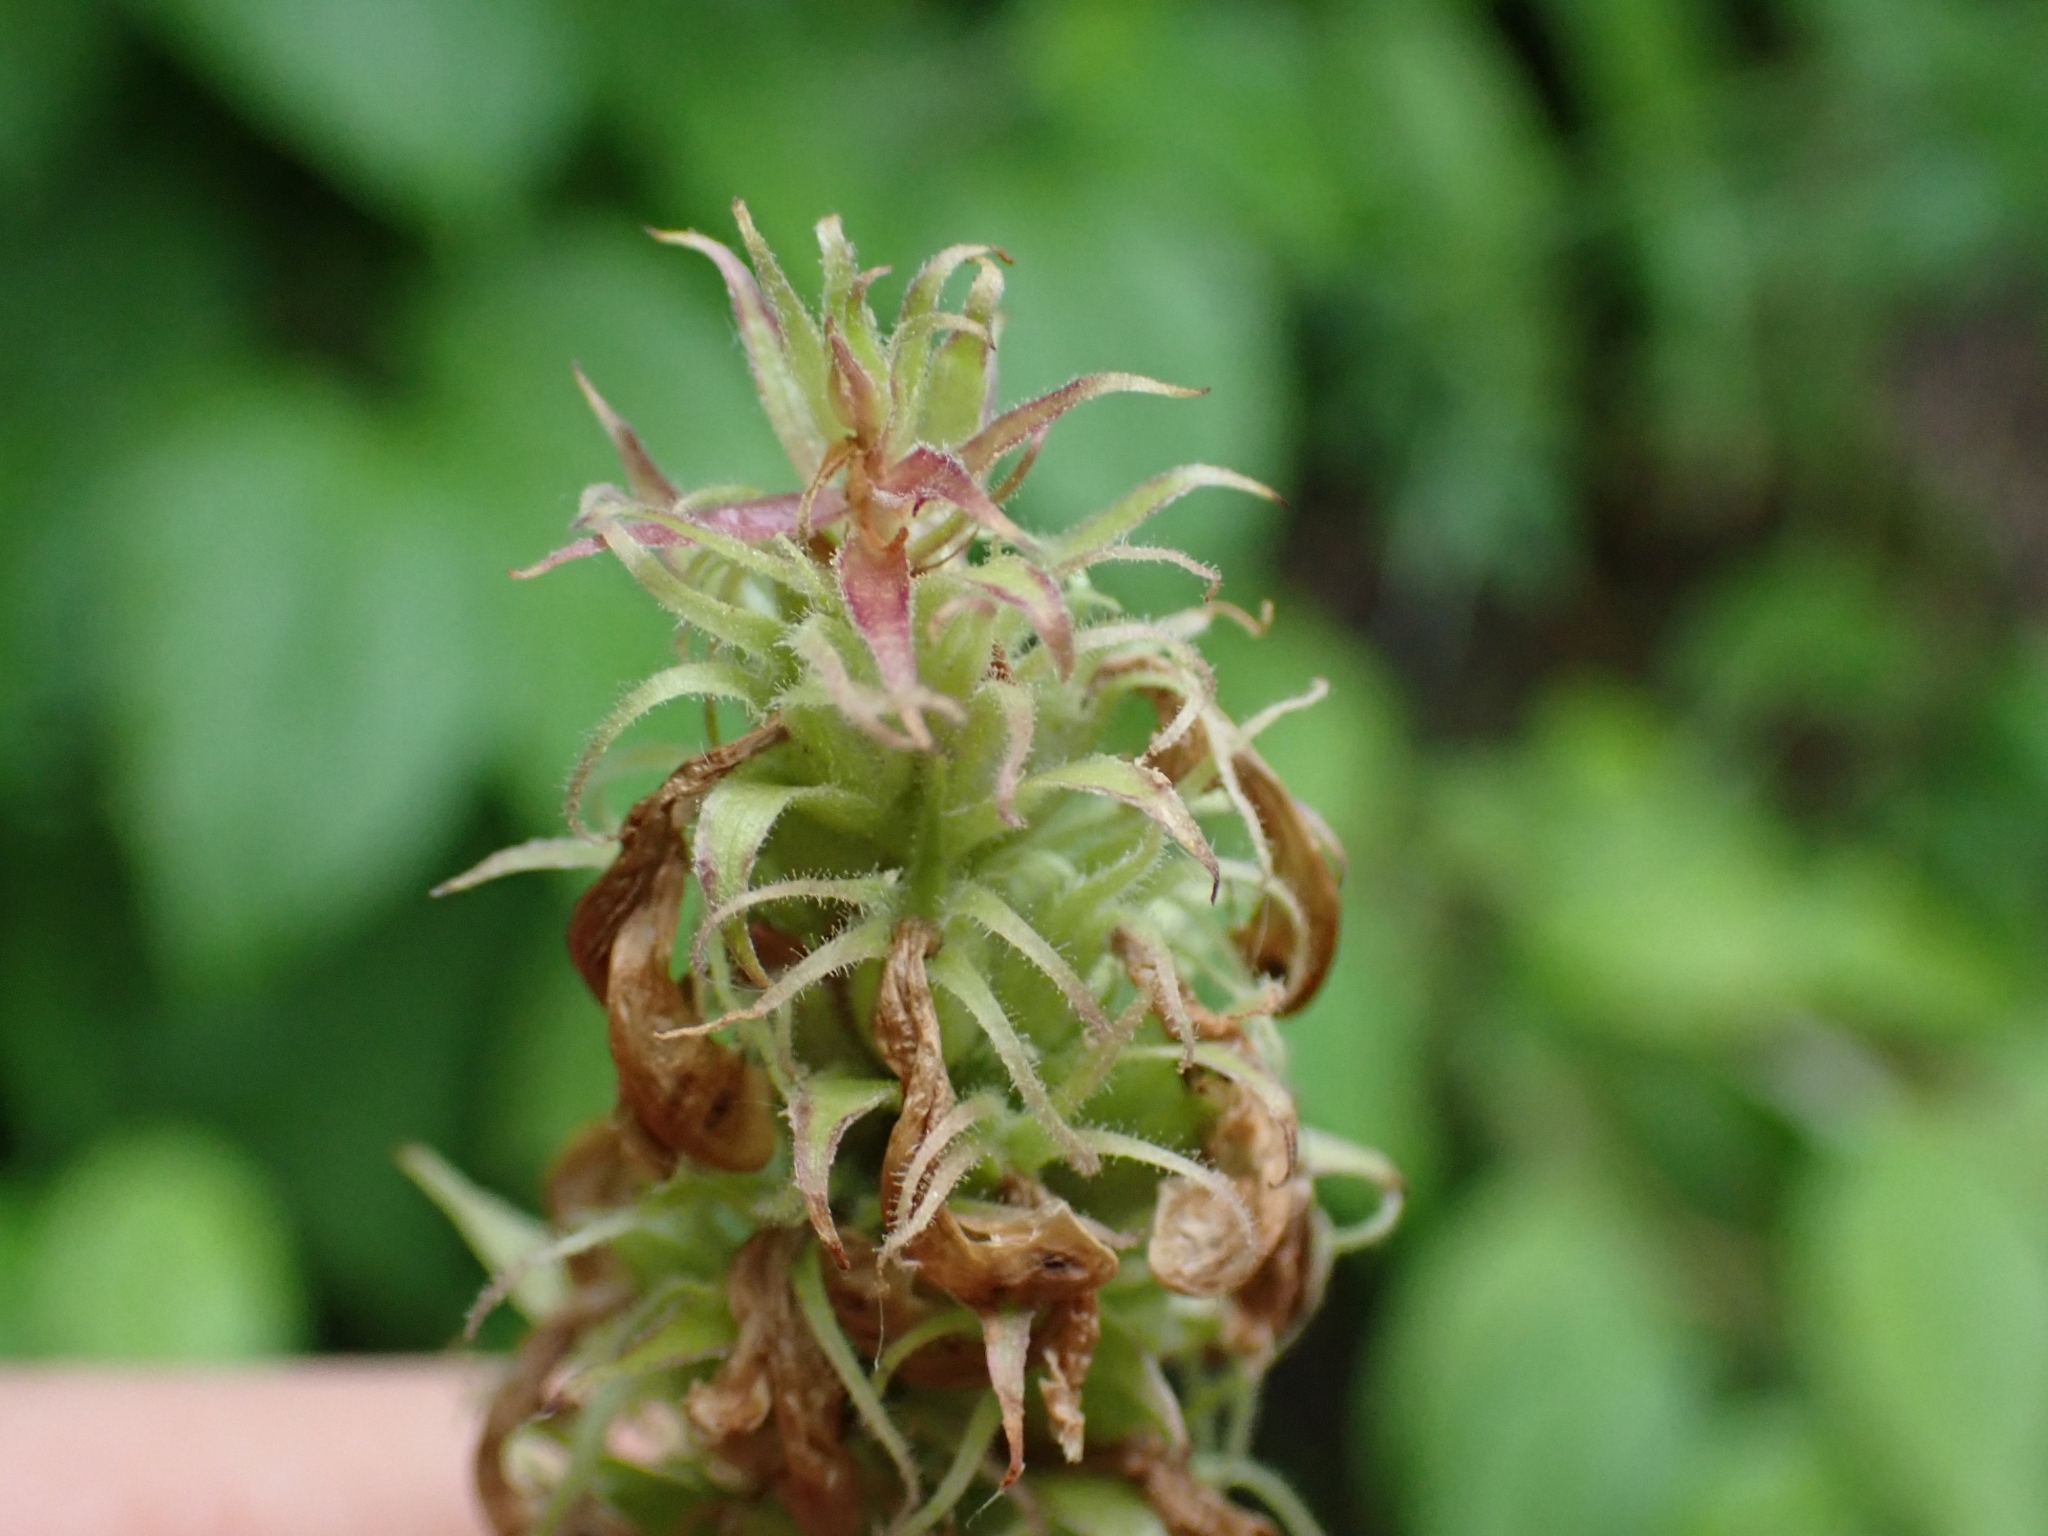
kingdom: Plantae
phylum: Tracheophyta
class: Magnoliopsida
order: Lamiales
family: Orobanchaceae
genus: Pedicularis
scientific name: Pedicularis bracteosa
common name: Bracted lousewort
